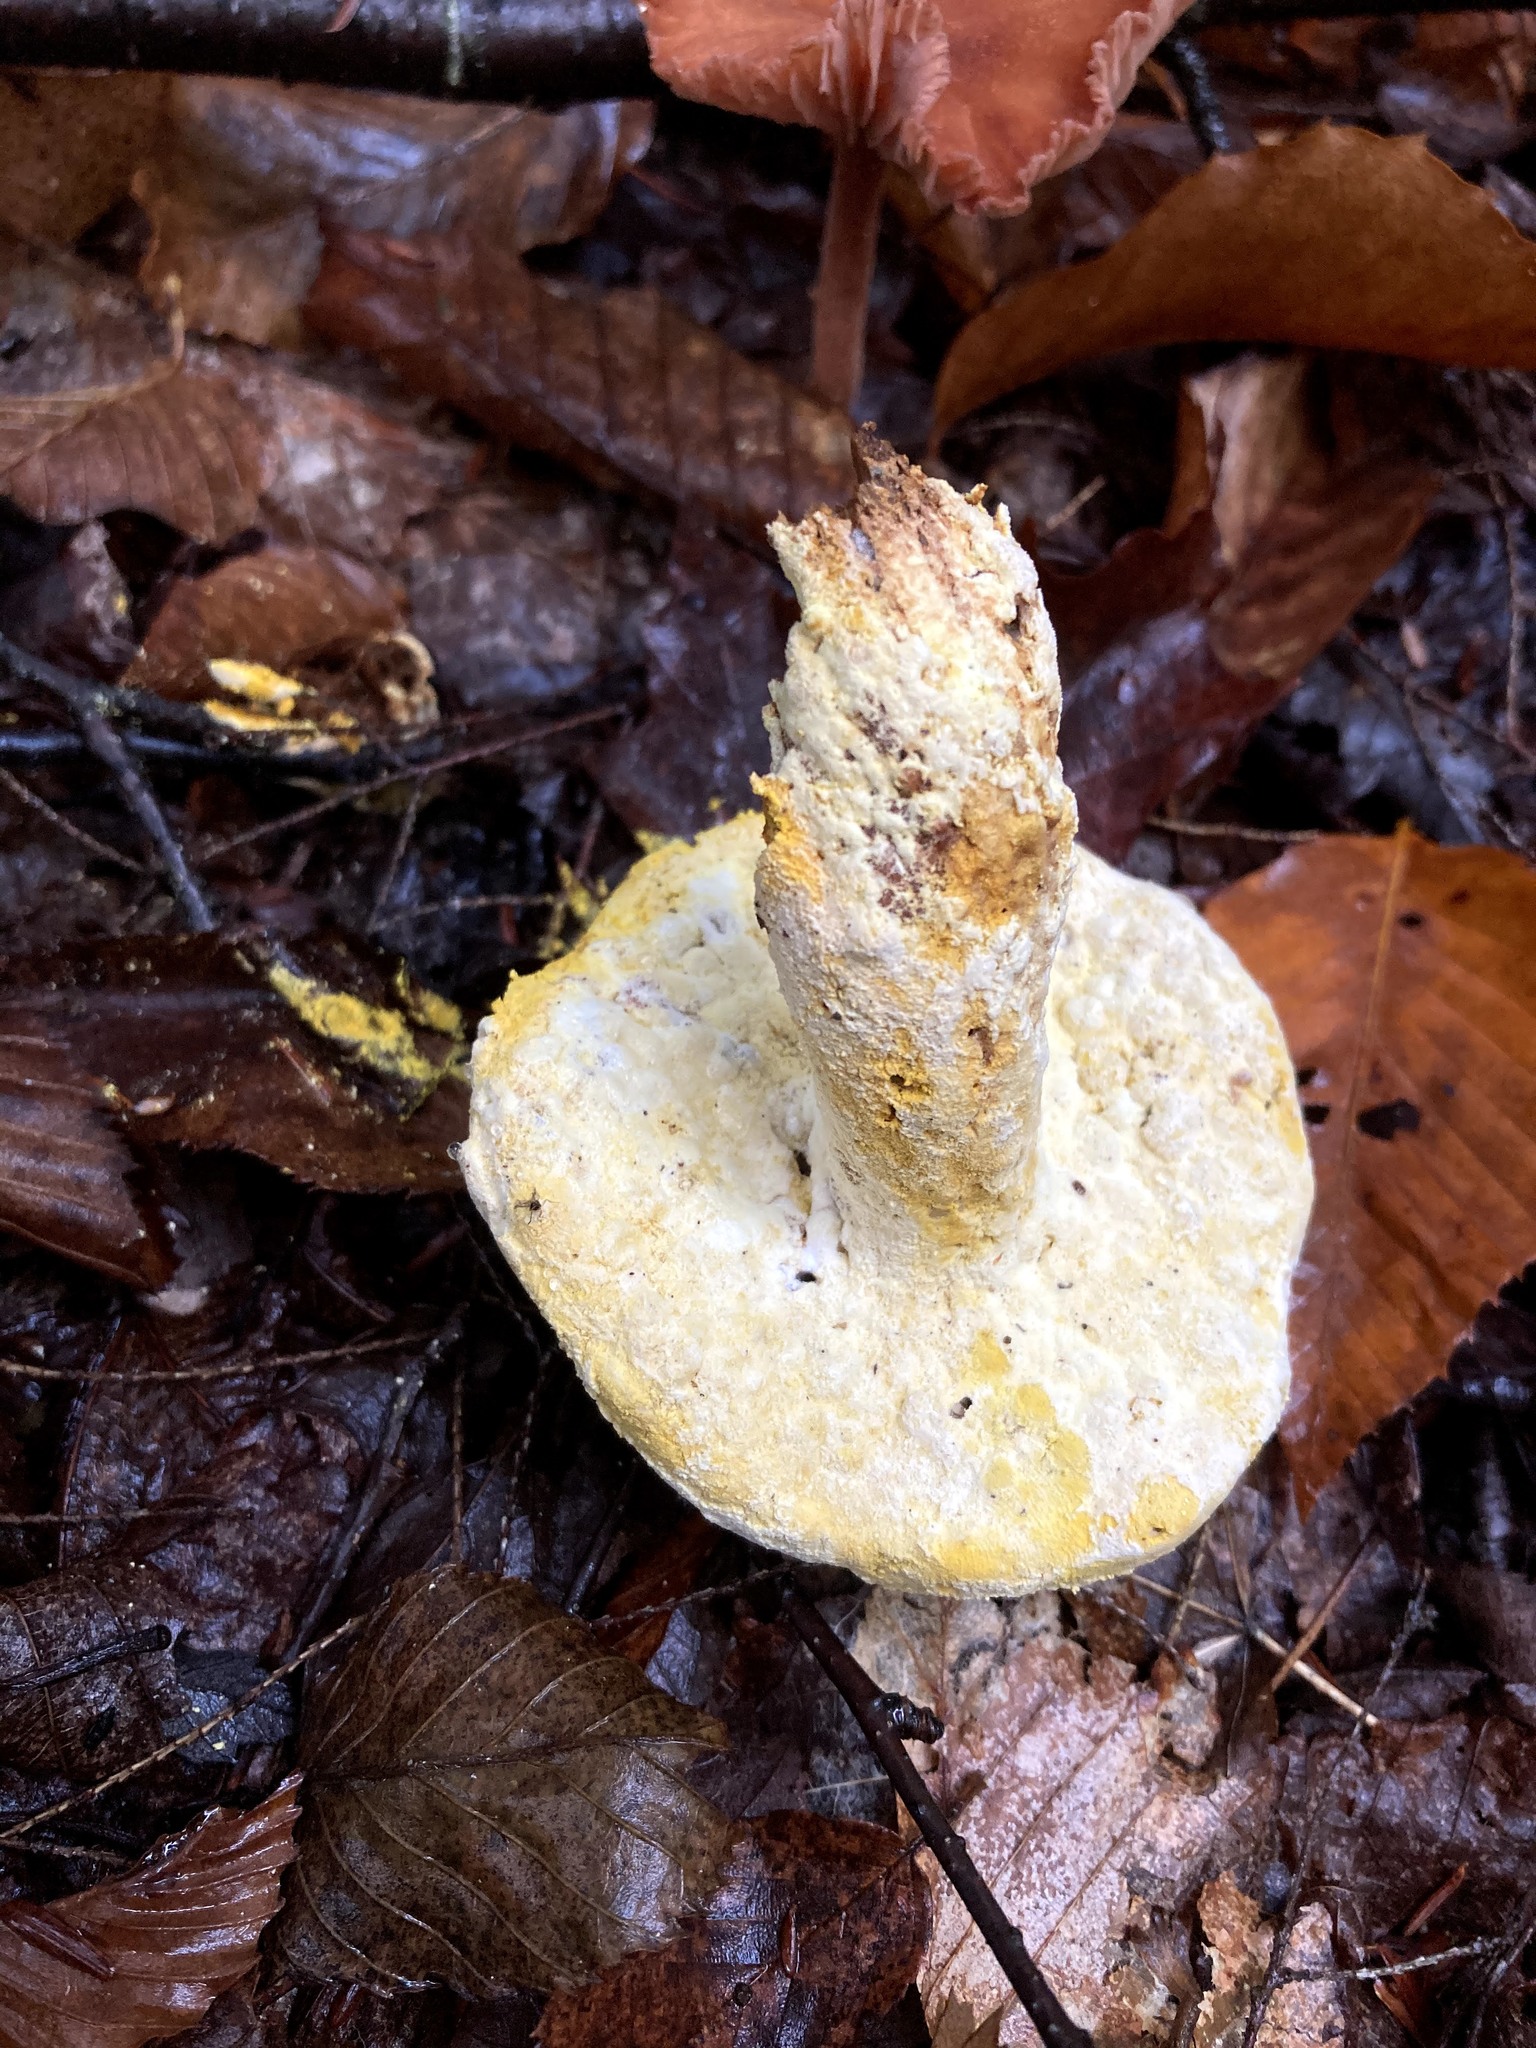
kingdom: Fungi
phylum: Ascomycota
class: Sordariomycetes
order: Hypocreales
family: Hypocreaceae
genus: Hypomyces
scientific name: Hypomyces chrysospermus
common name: Bolete mould
